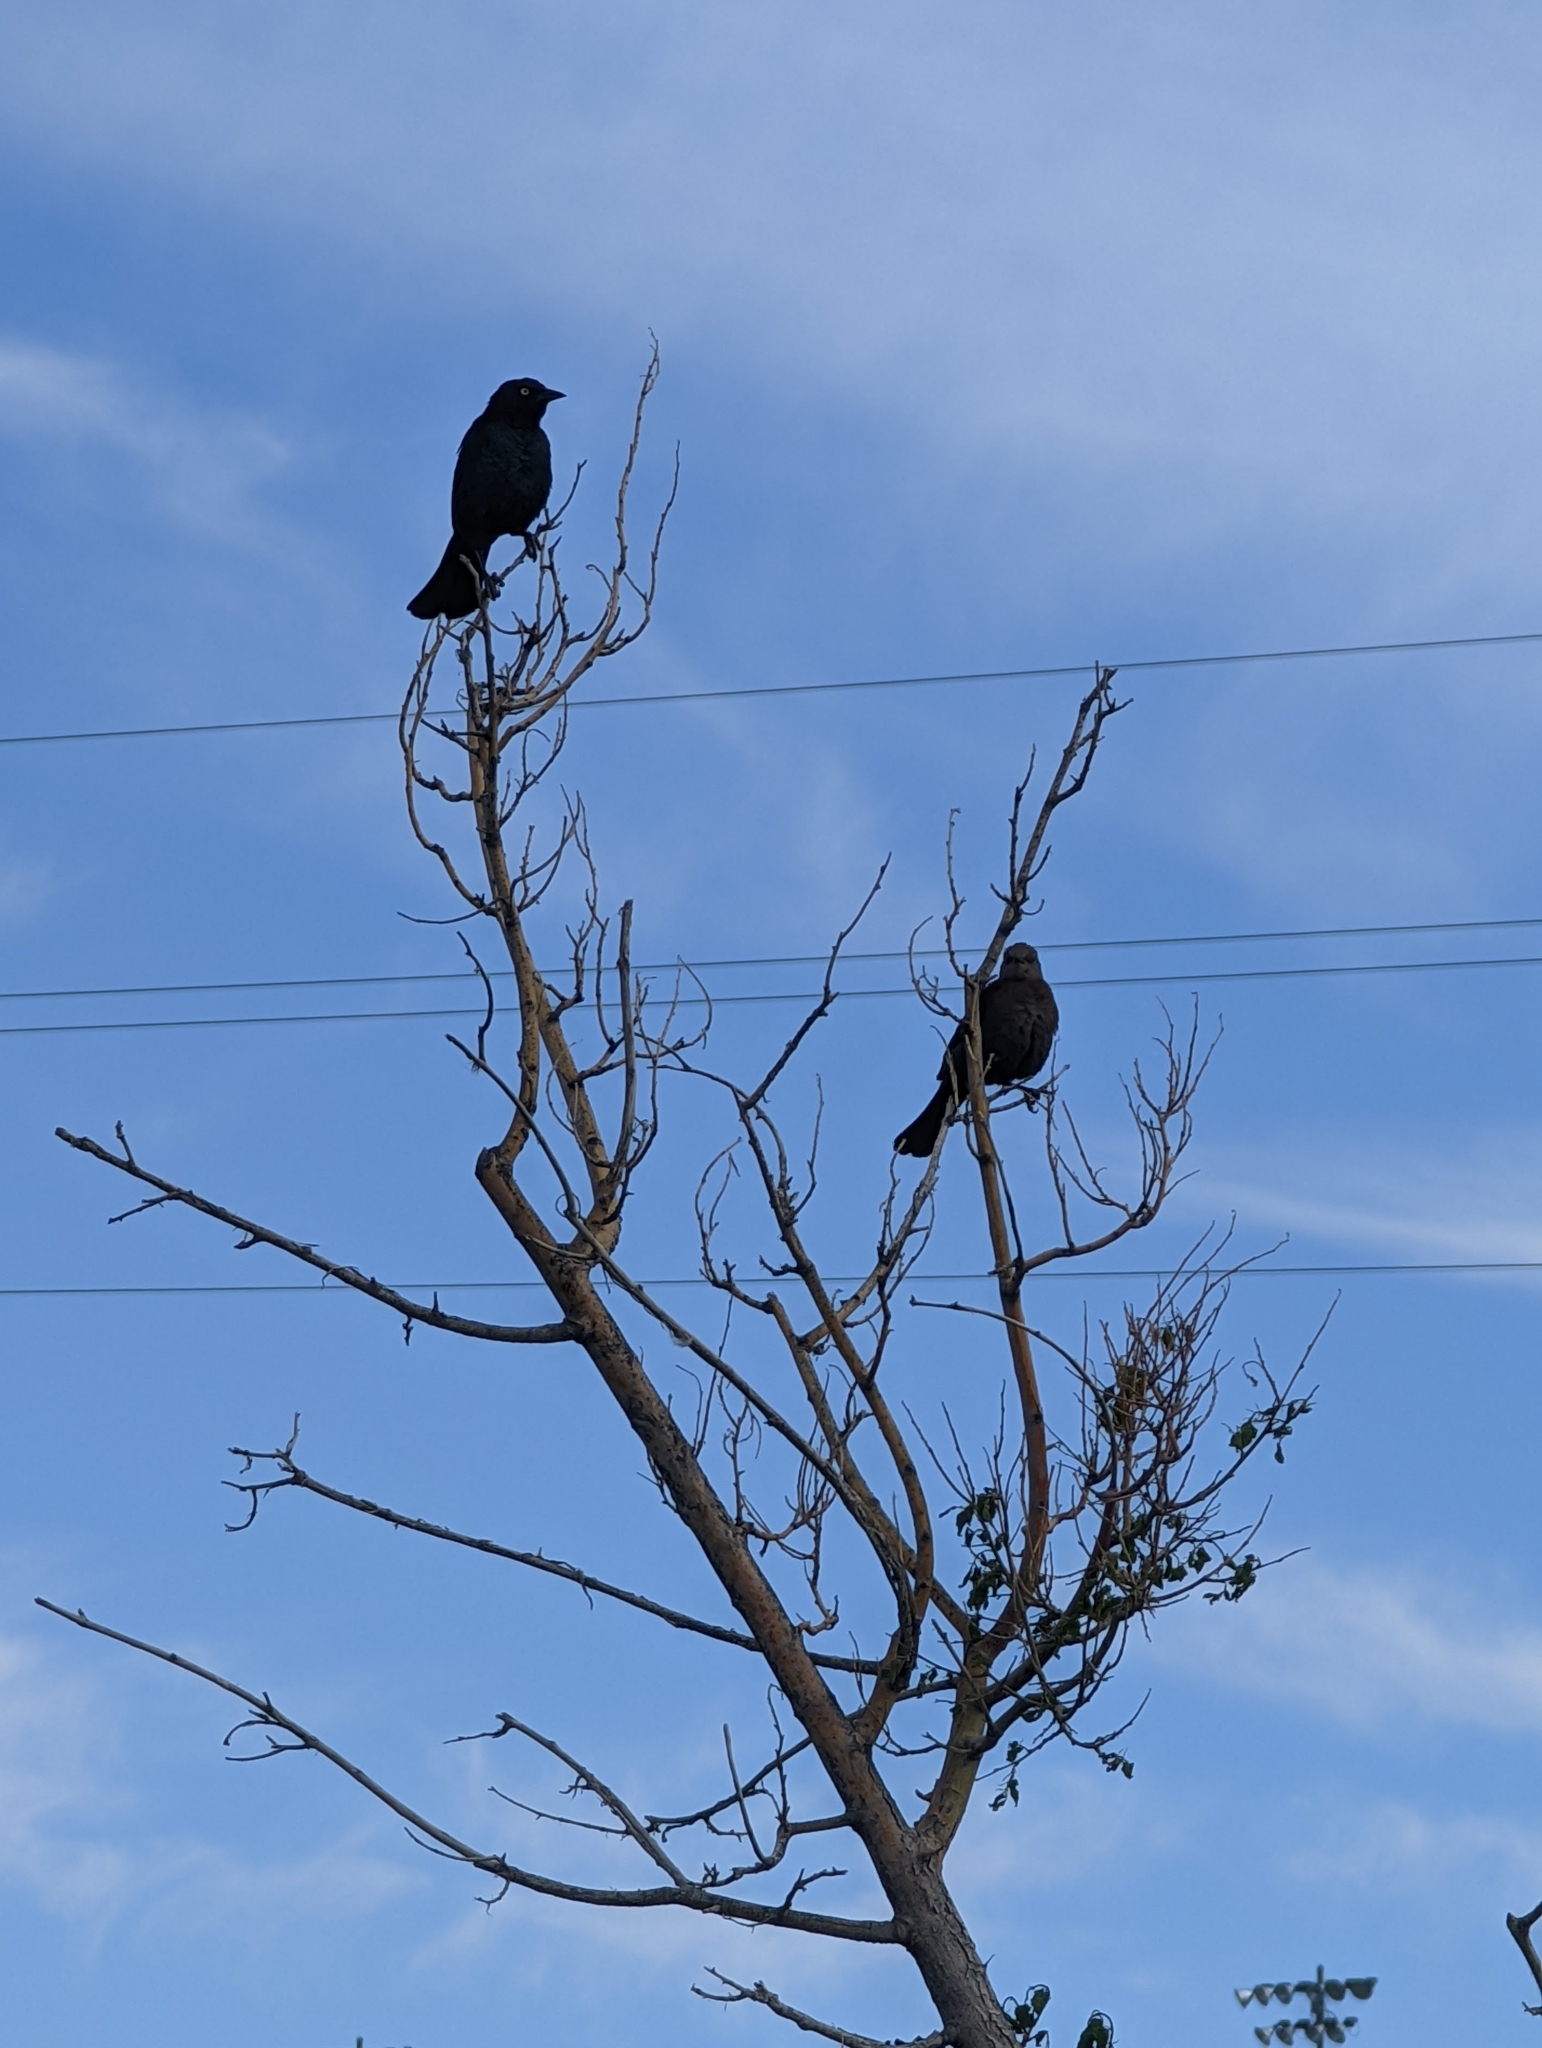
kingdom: Animalia
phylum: Chordata
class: Aves
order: Passeriformes
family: Icteridae
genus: Euphagus
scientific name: Euphagus cyanocephalus
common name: Brewer's blackbird
